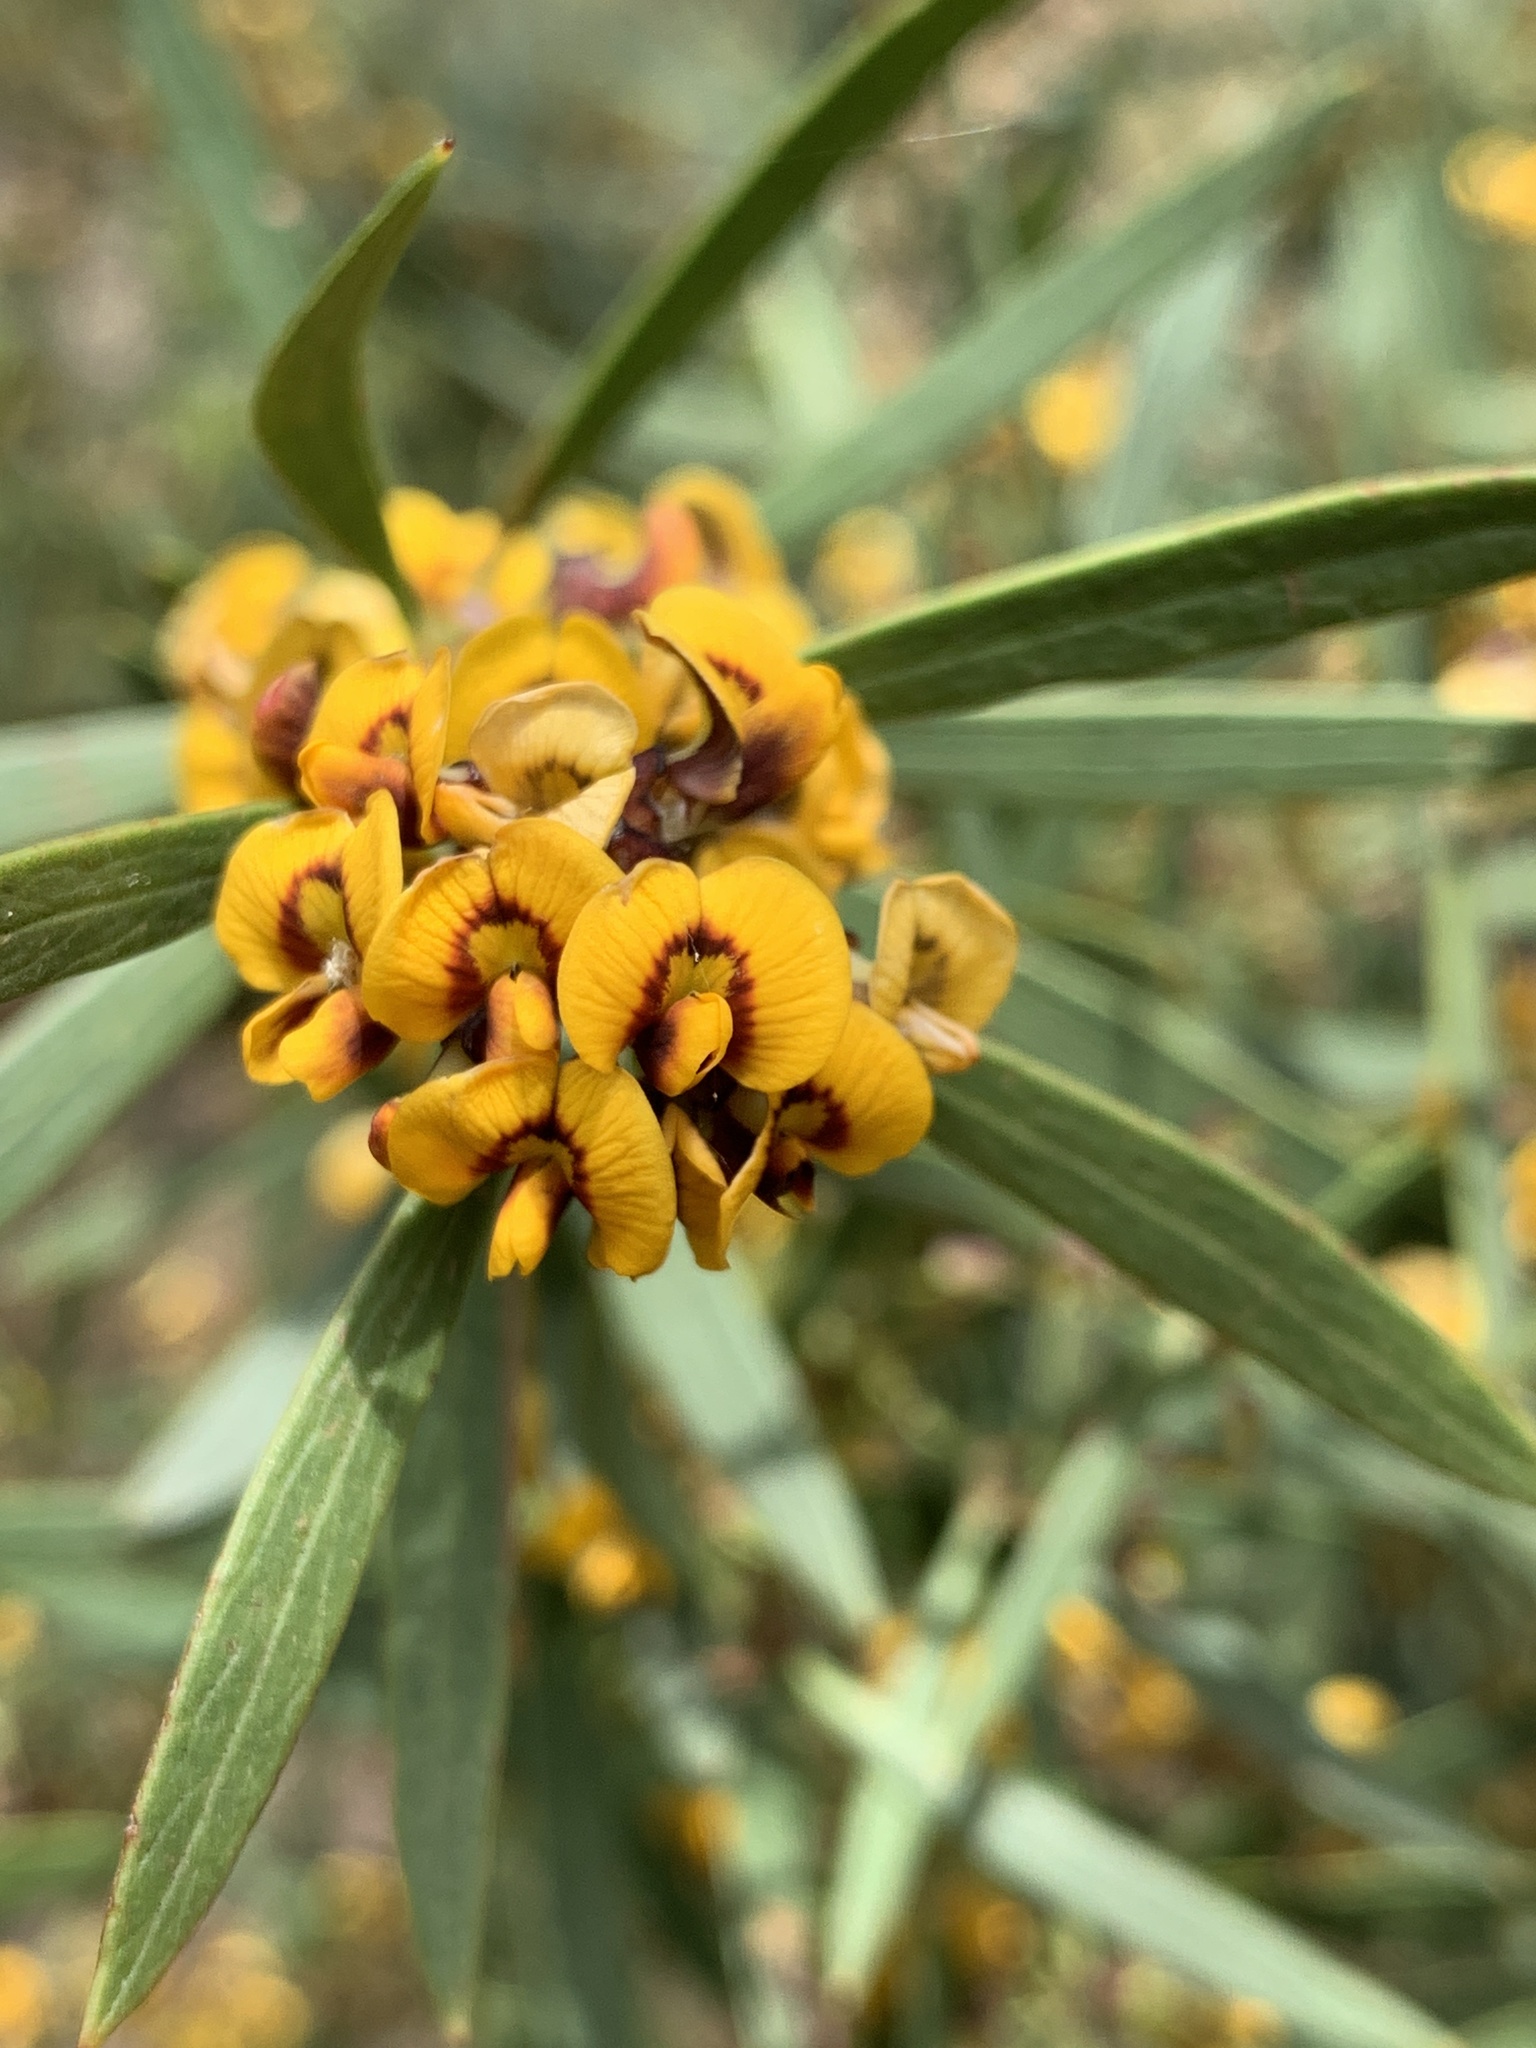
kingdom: Plantae
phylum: Tracheophyta
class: Magnoliopsida
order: Fabales
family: Fabaceae
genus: Daviesia
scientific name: Daviesia mimosoides
